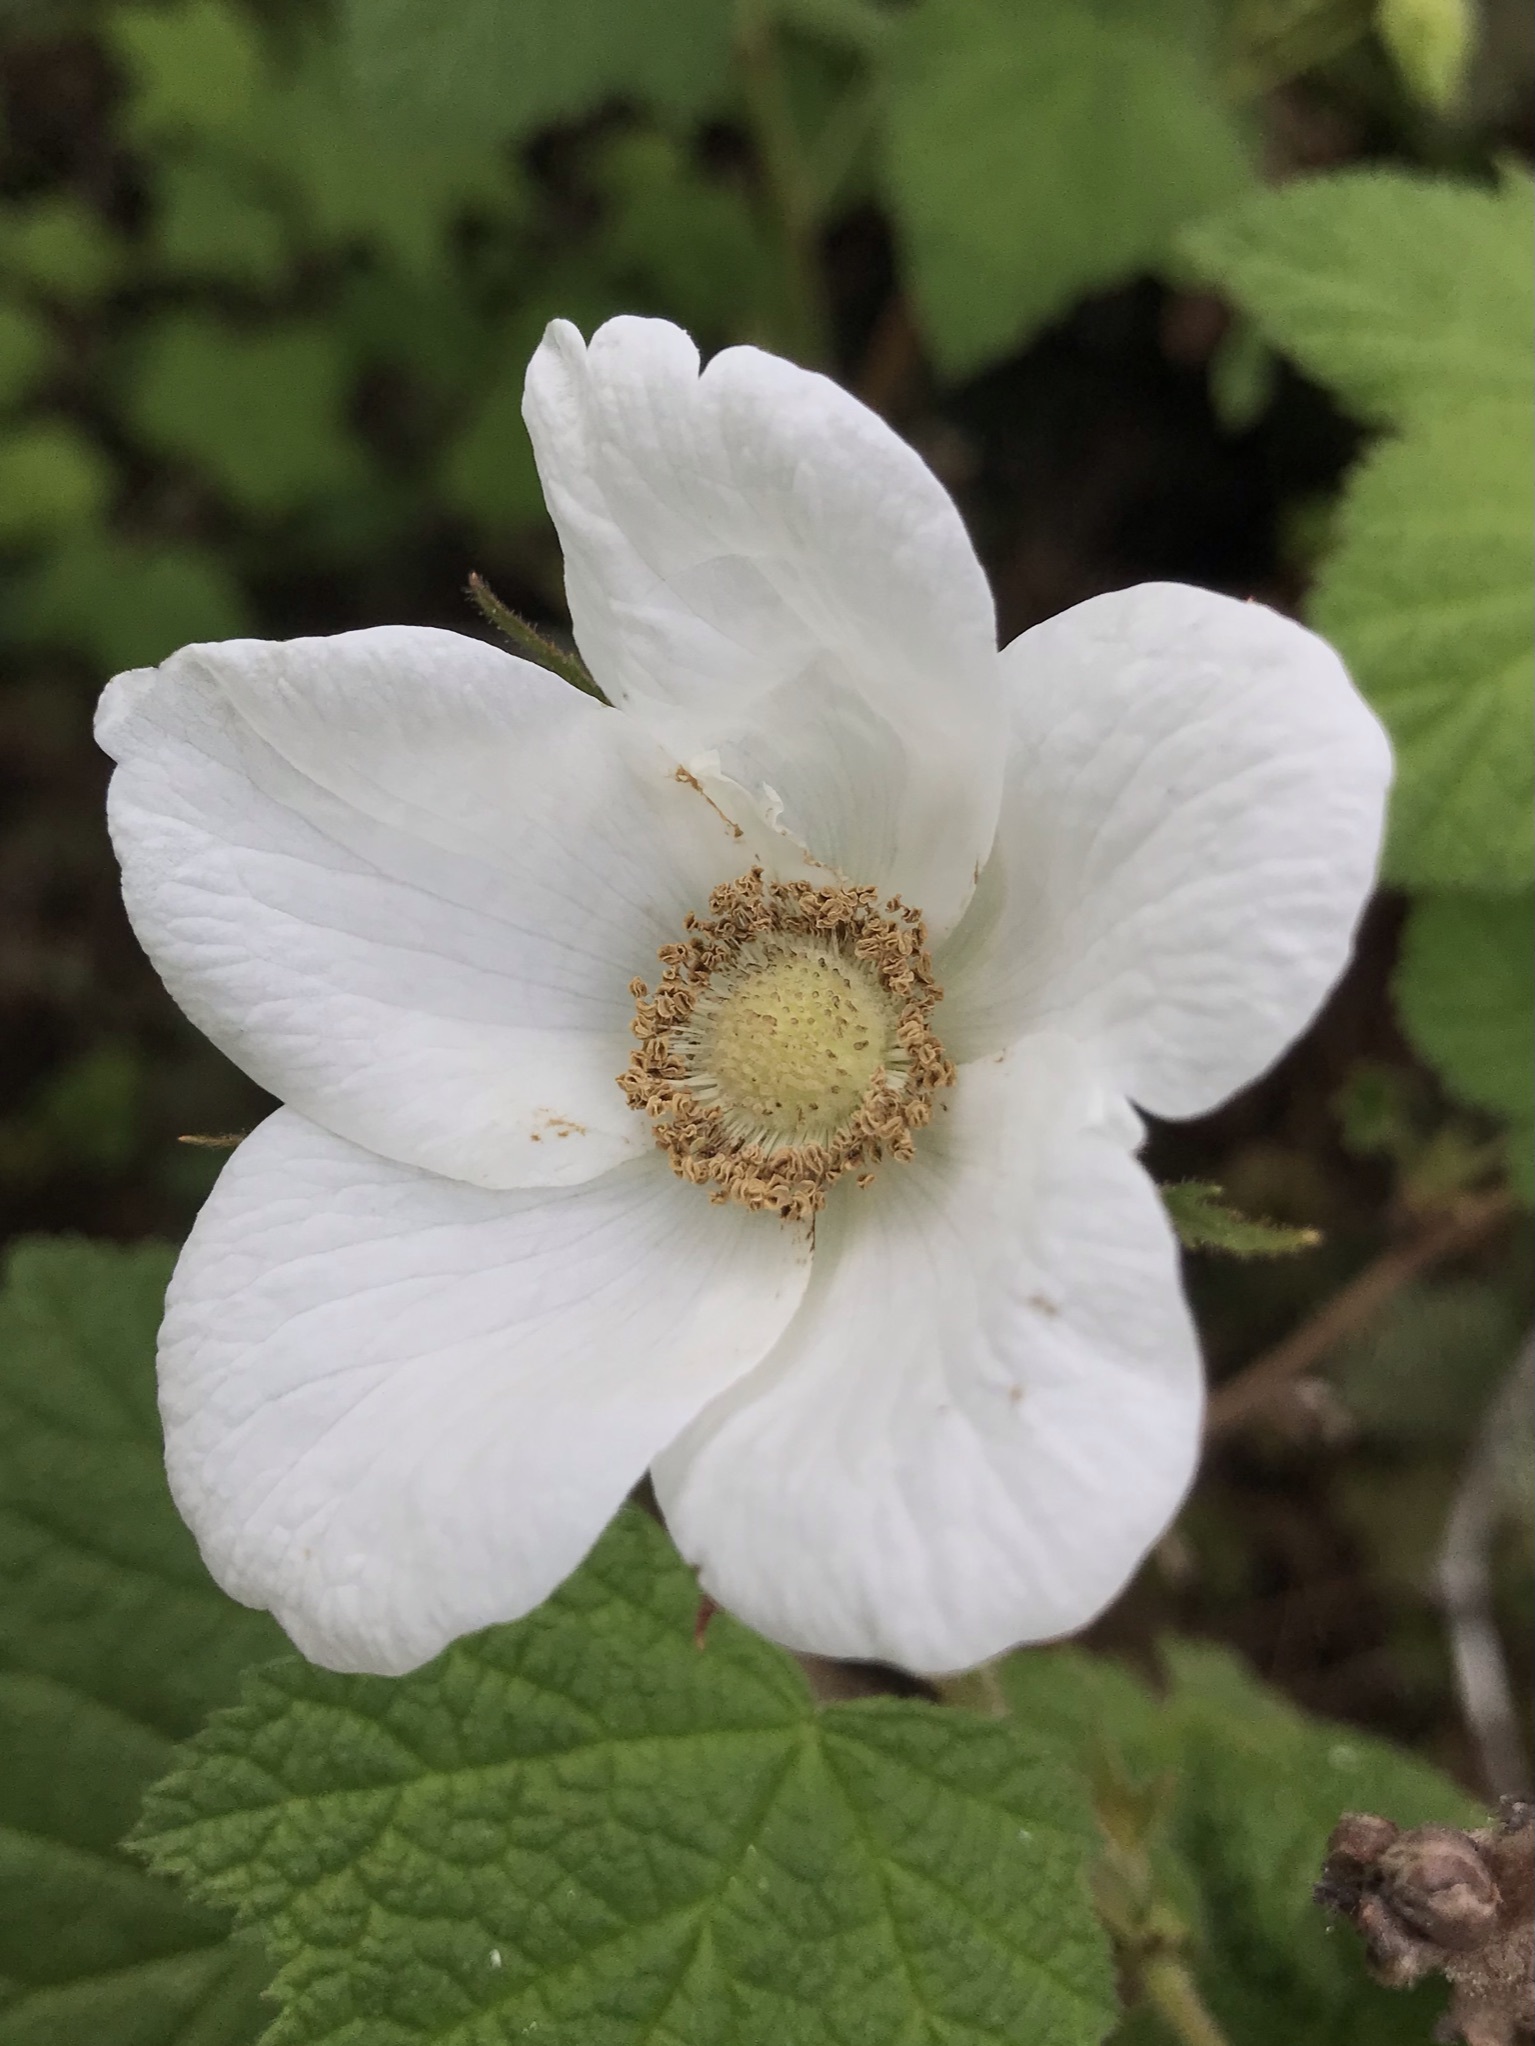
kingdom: Plantae
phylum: Tracheophyta
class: Magnoliopsida
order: Rosales
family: Rosaceae
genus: Rubus
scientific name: Rubus parviflorus
